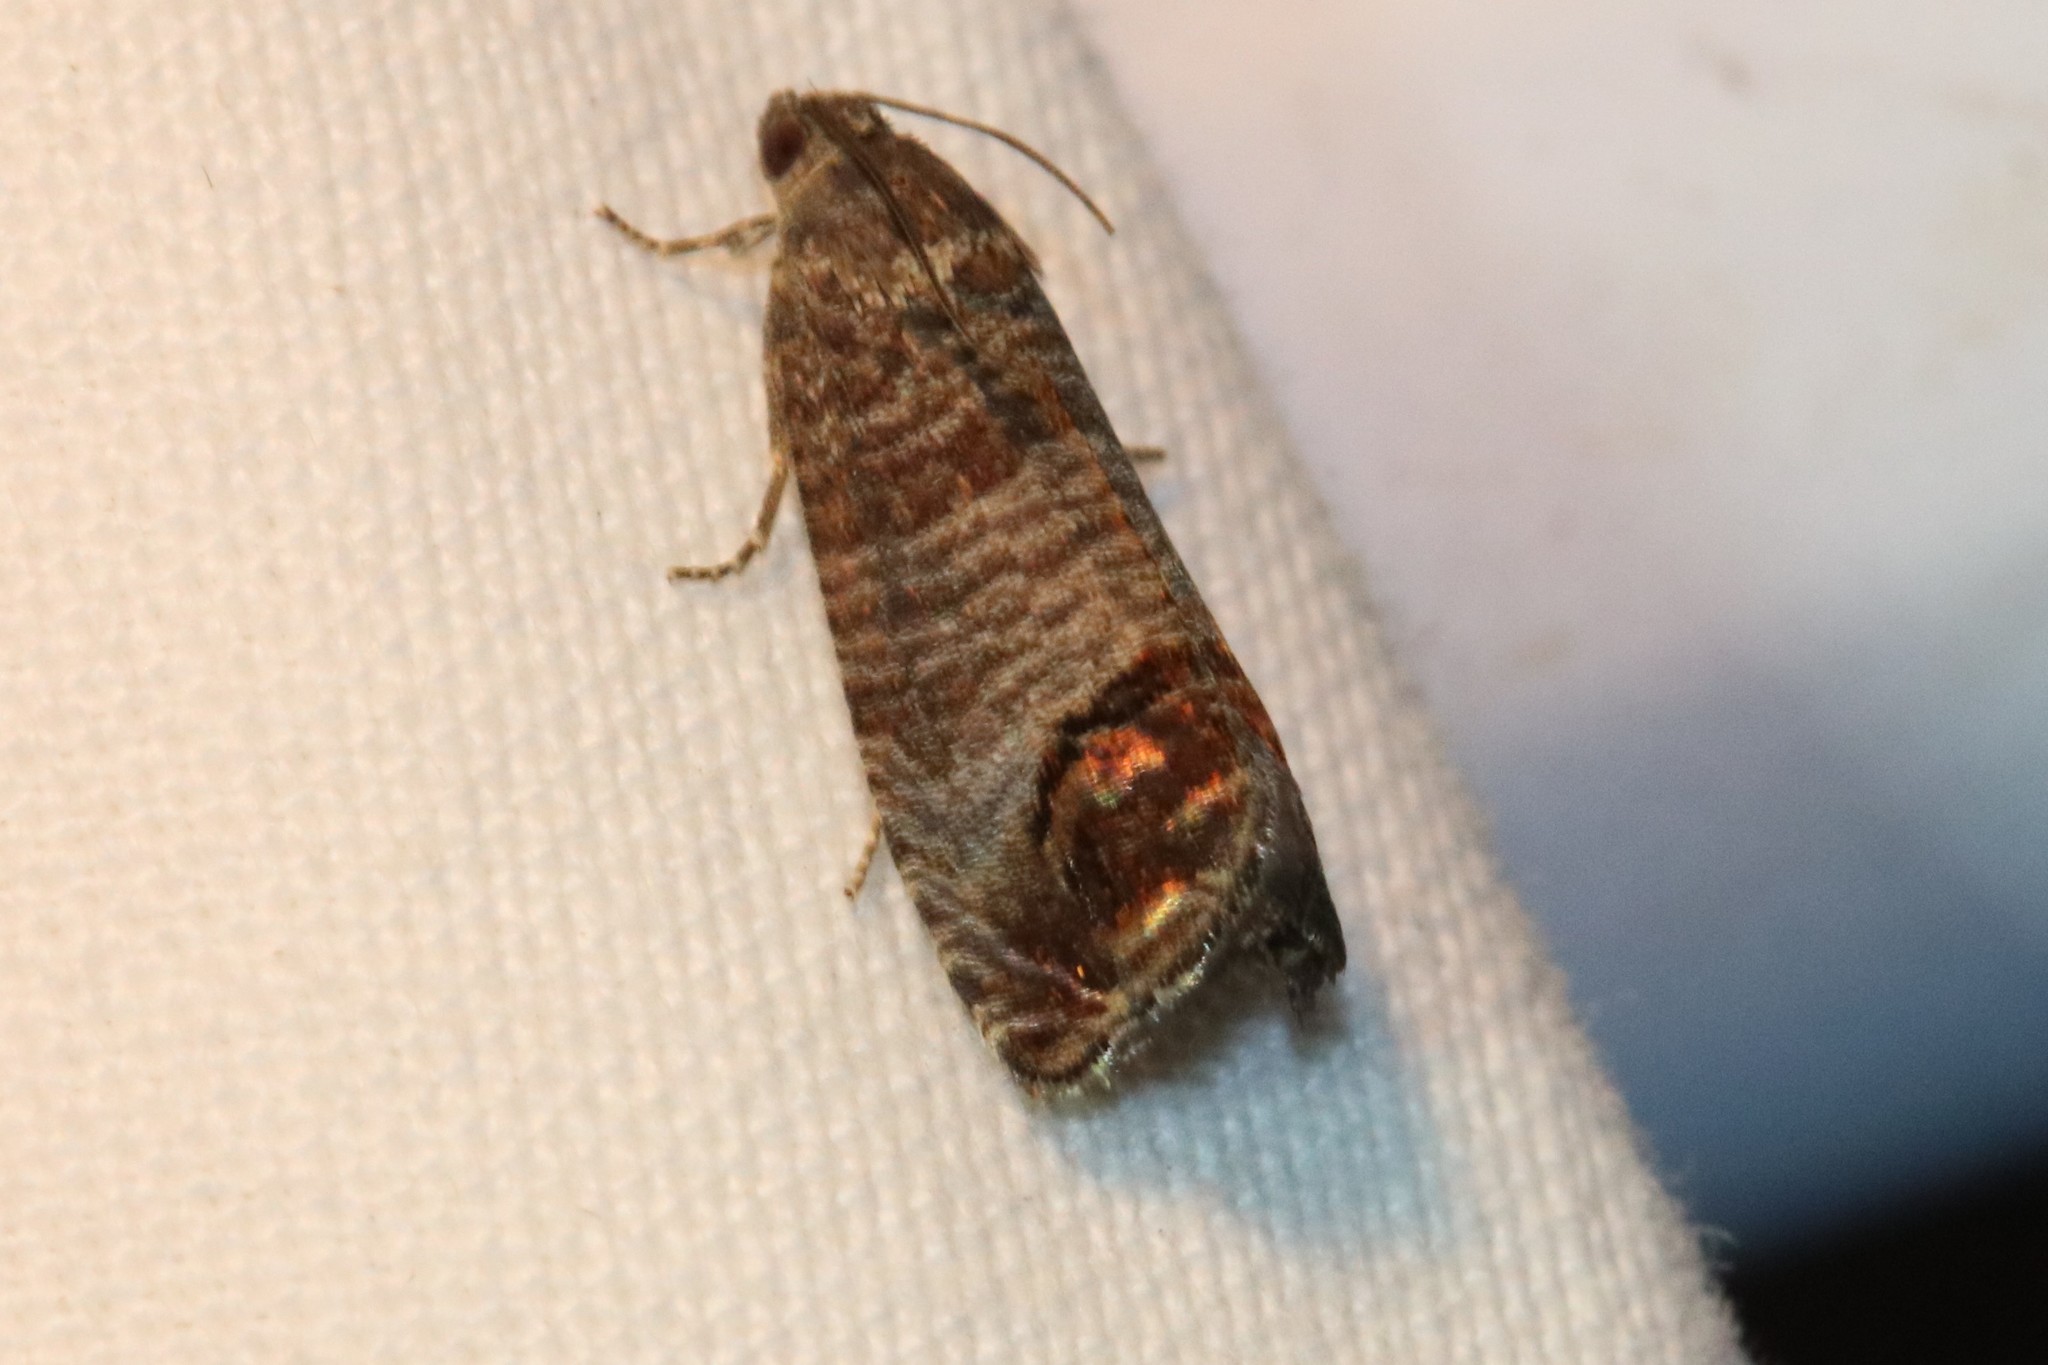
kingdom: Animalia
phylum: Arthropoda
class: Insecta
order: Lepidoptera
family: Tortricidae
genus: Cydia
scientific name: Cydia pomonella
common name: Codling moth
